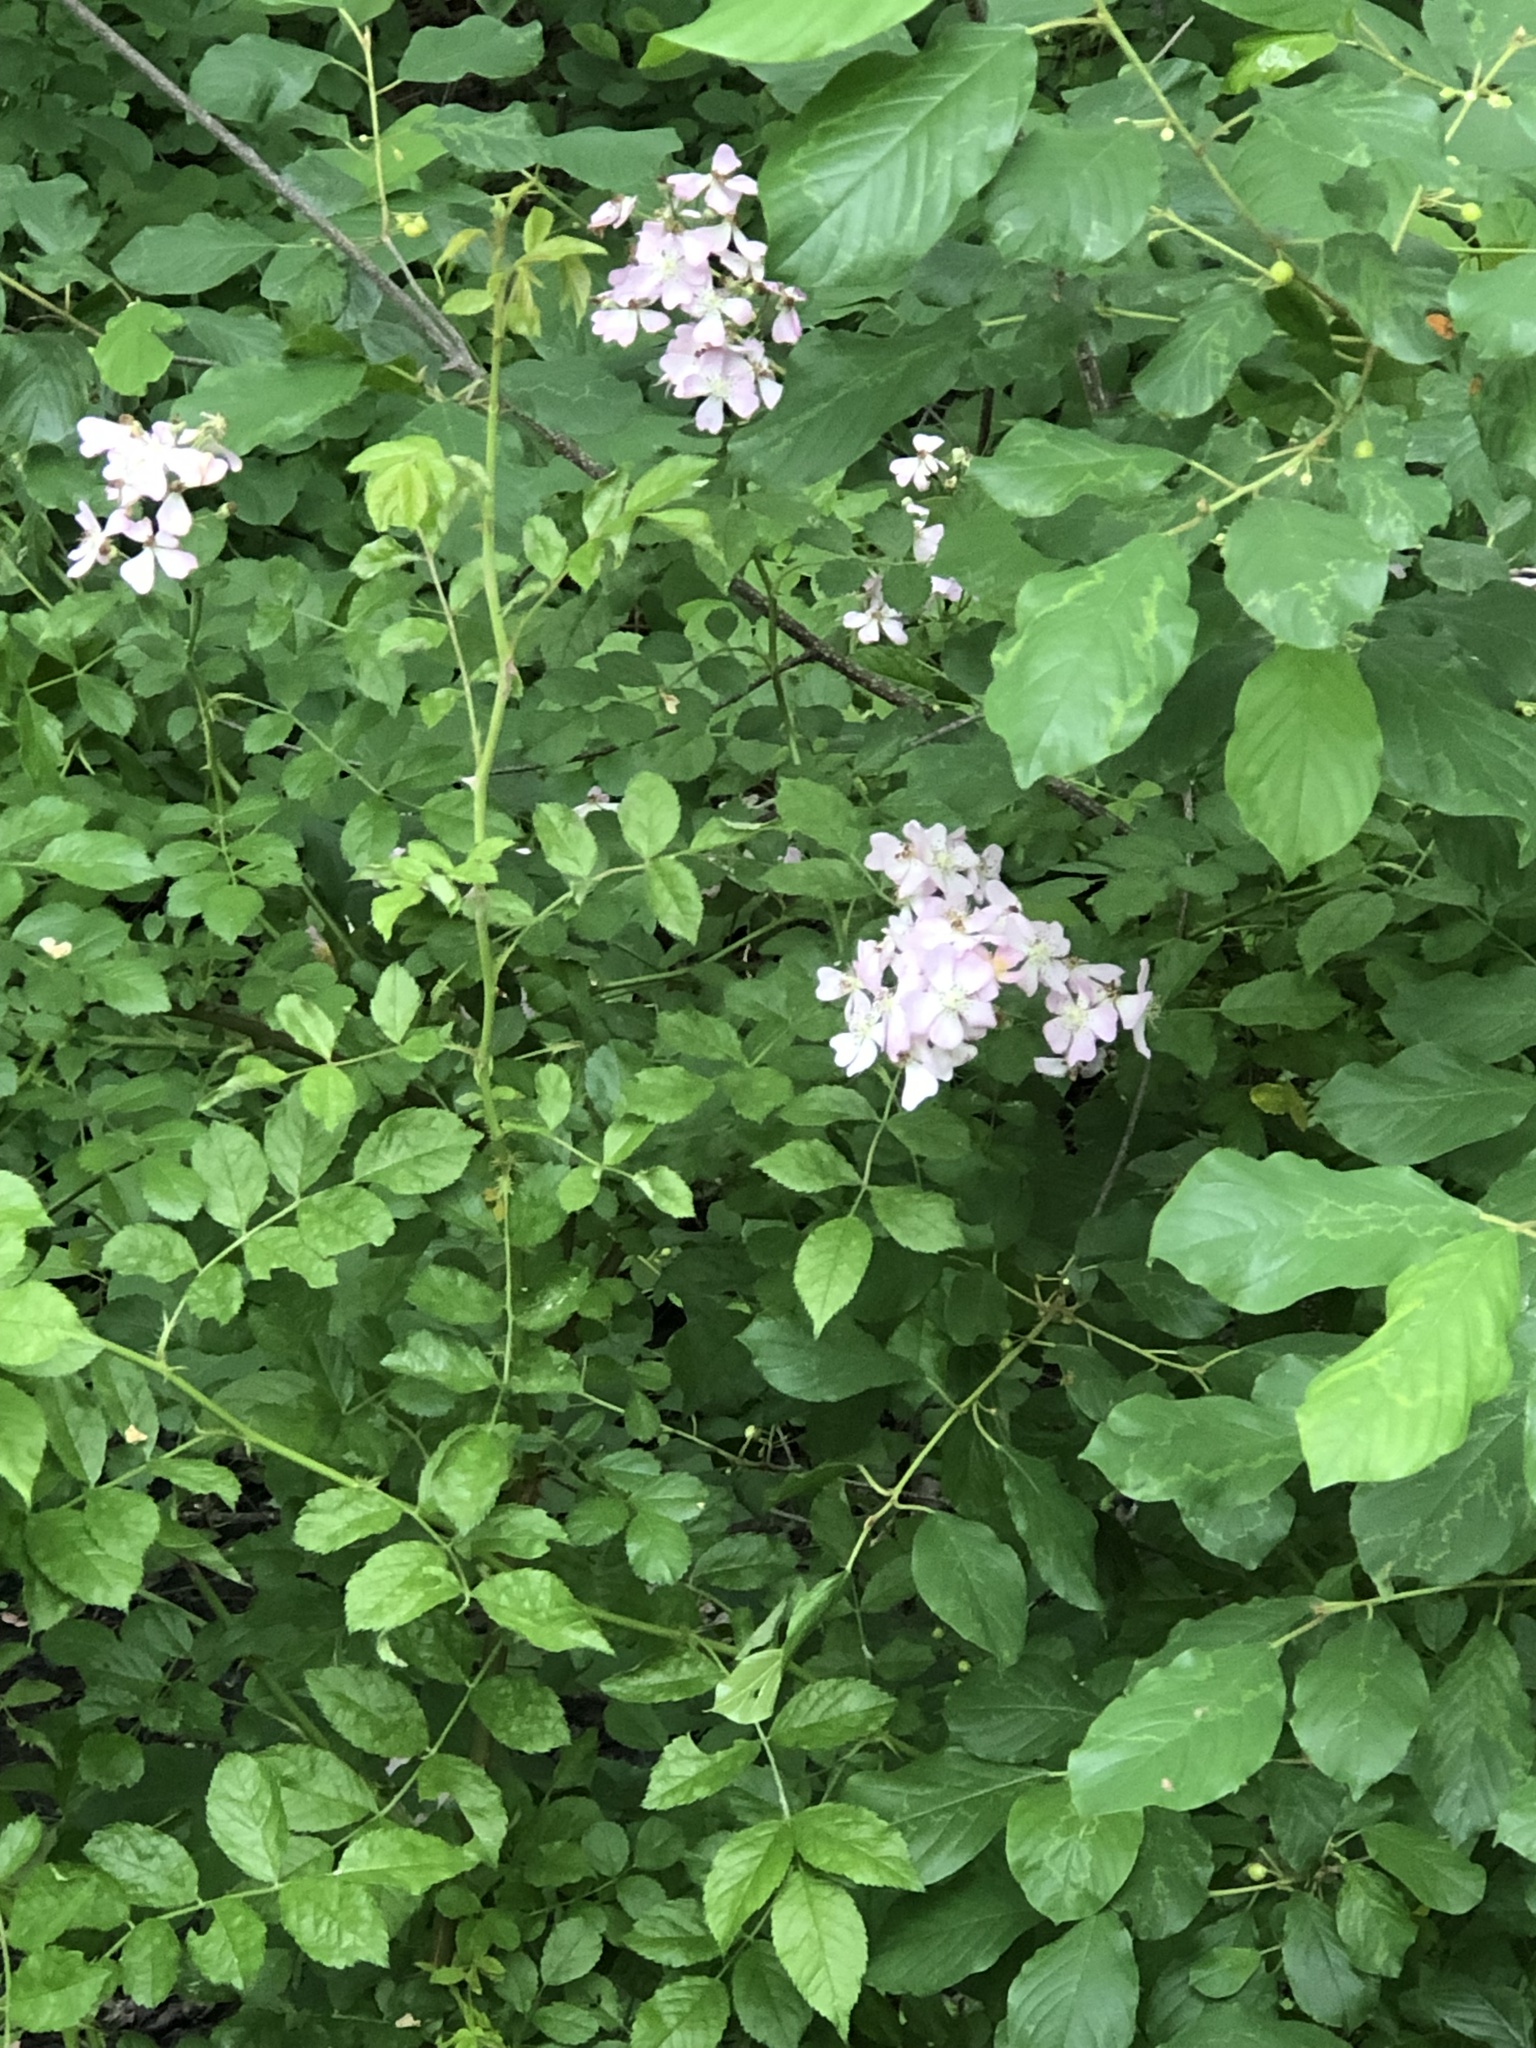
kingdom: Plantae
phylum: Tracheophyta
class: Magnoliopsida
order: Rosales
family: Rosaceae
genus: Rosa
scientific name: Rosa multiflora
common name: Multiflora rose
